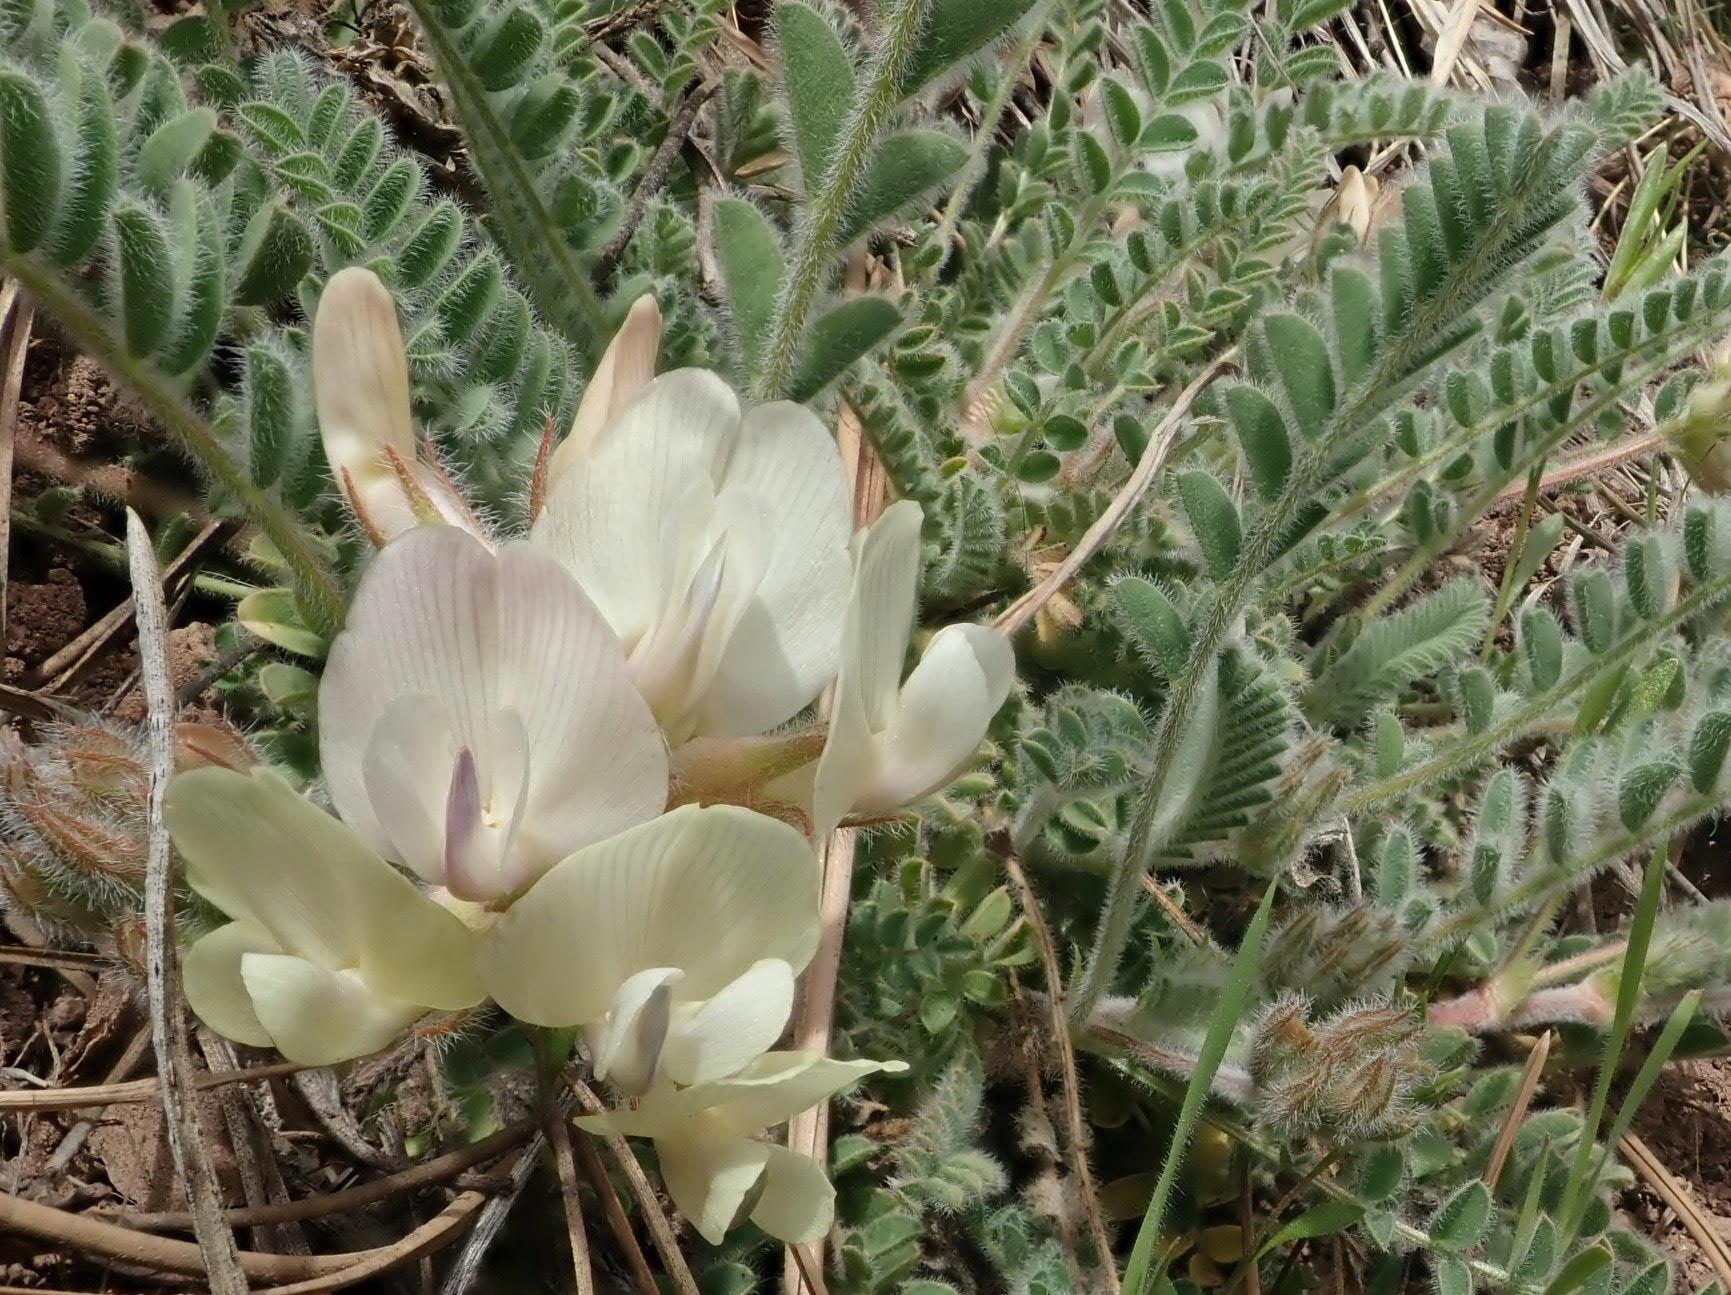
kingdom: Plantae
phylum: Tracheophyta
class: Magnoliopsida
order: Fabales
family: Fabaceae
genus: Astragalus
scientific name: Astragalus parryi
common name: Parry milk-vetch
